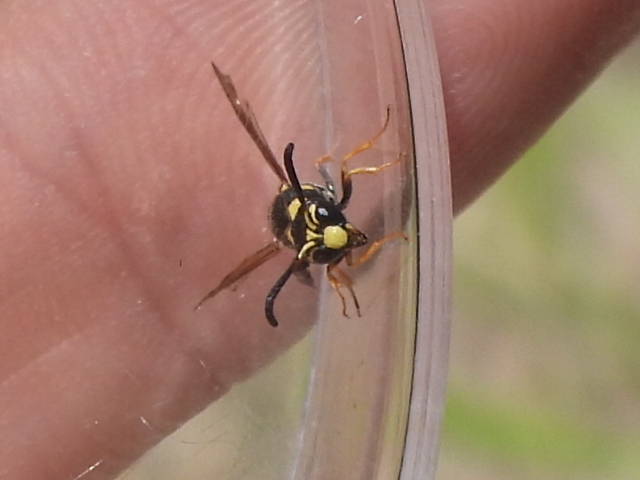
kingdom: Animalia
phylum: Arthropoda
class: Insecta
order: Hymenoptera
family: Eumenidae
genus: Parancistrocerus
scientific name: Parancistrocerus fulvipes
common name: Potter wasp
